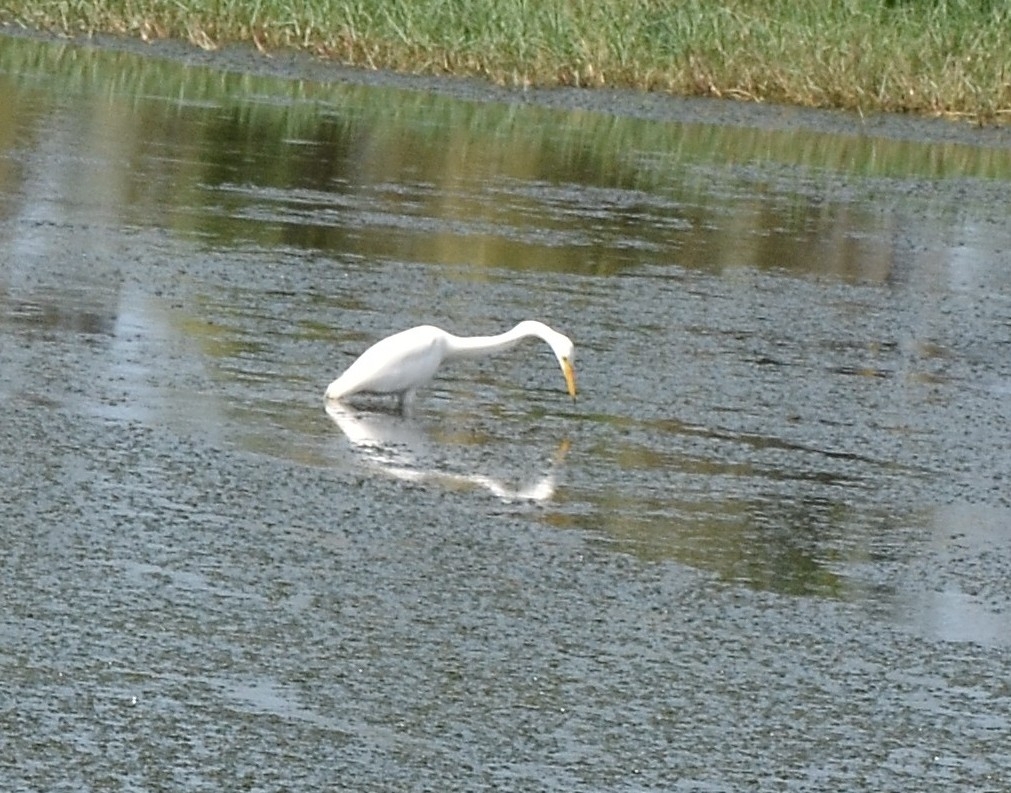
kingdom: Animalia
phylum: Chordata
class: Aves
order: Pelecaniformes
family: Ardeidae
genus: Ardea
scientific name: Ardea alba
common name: Great egret
